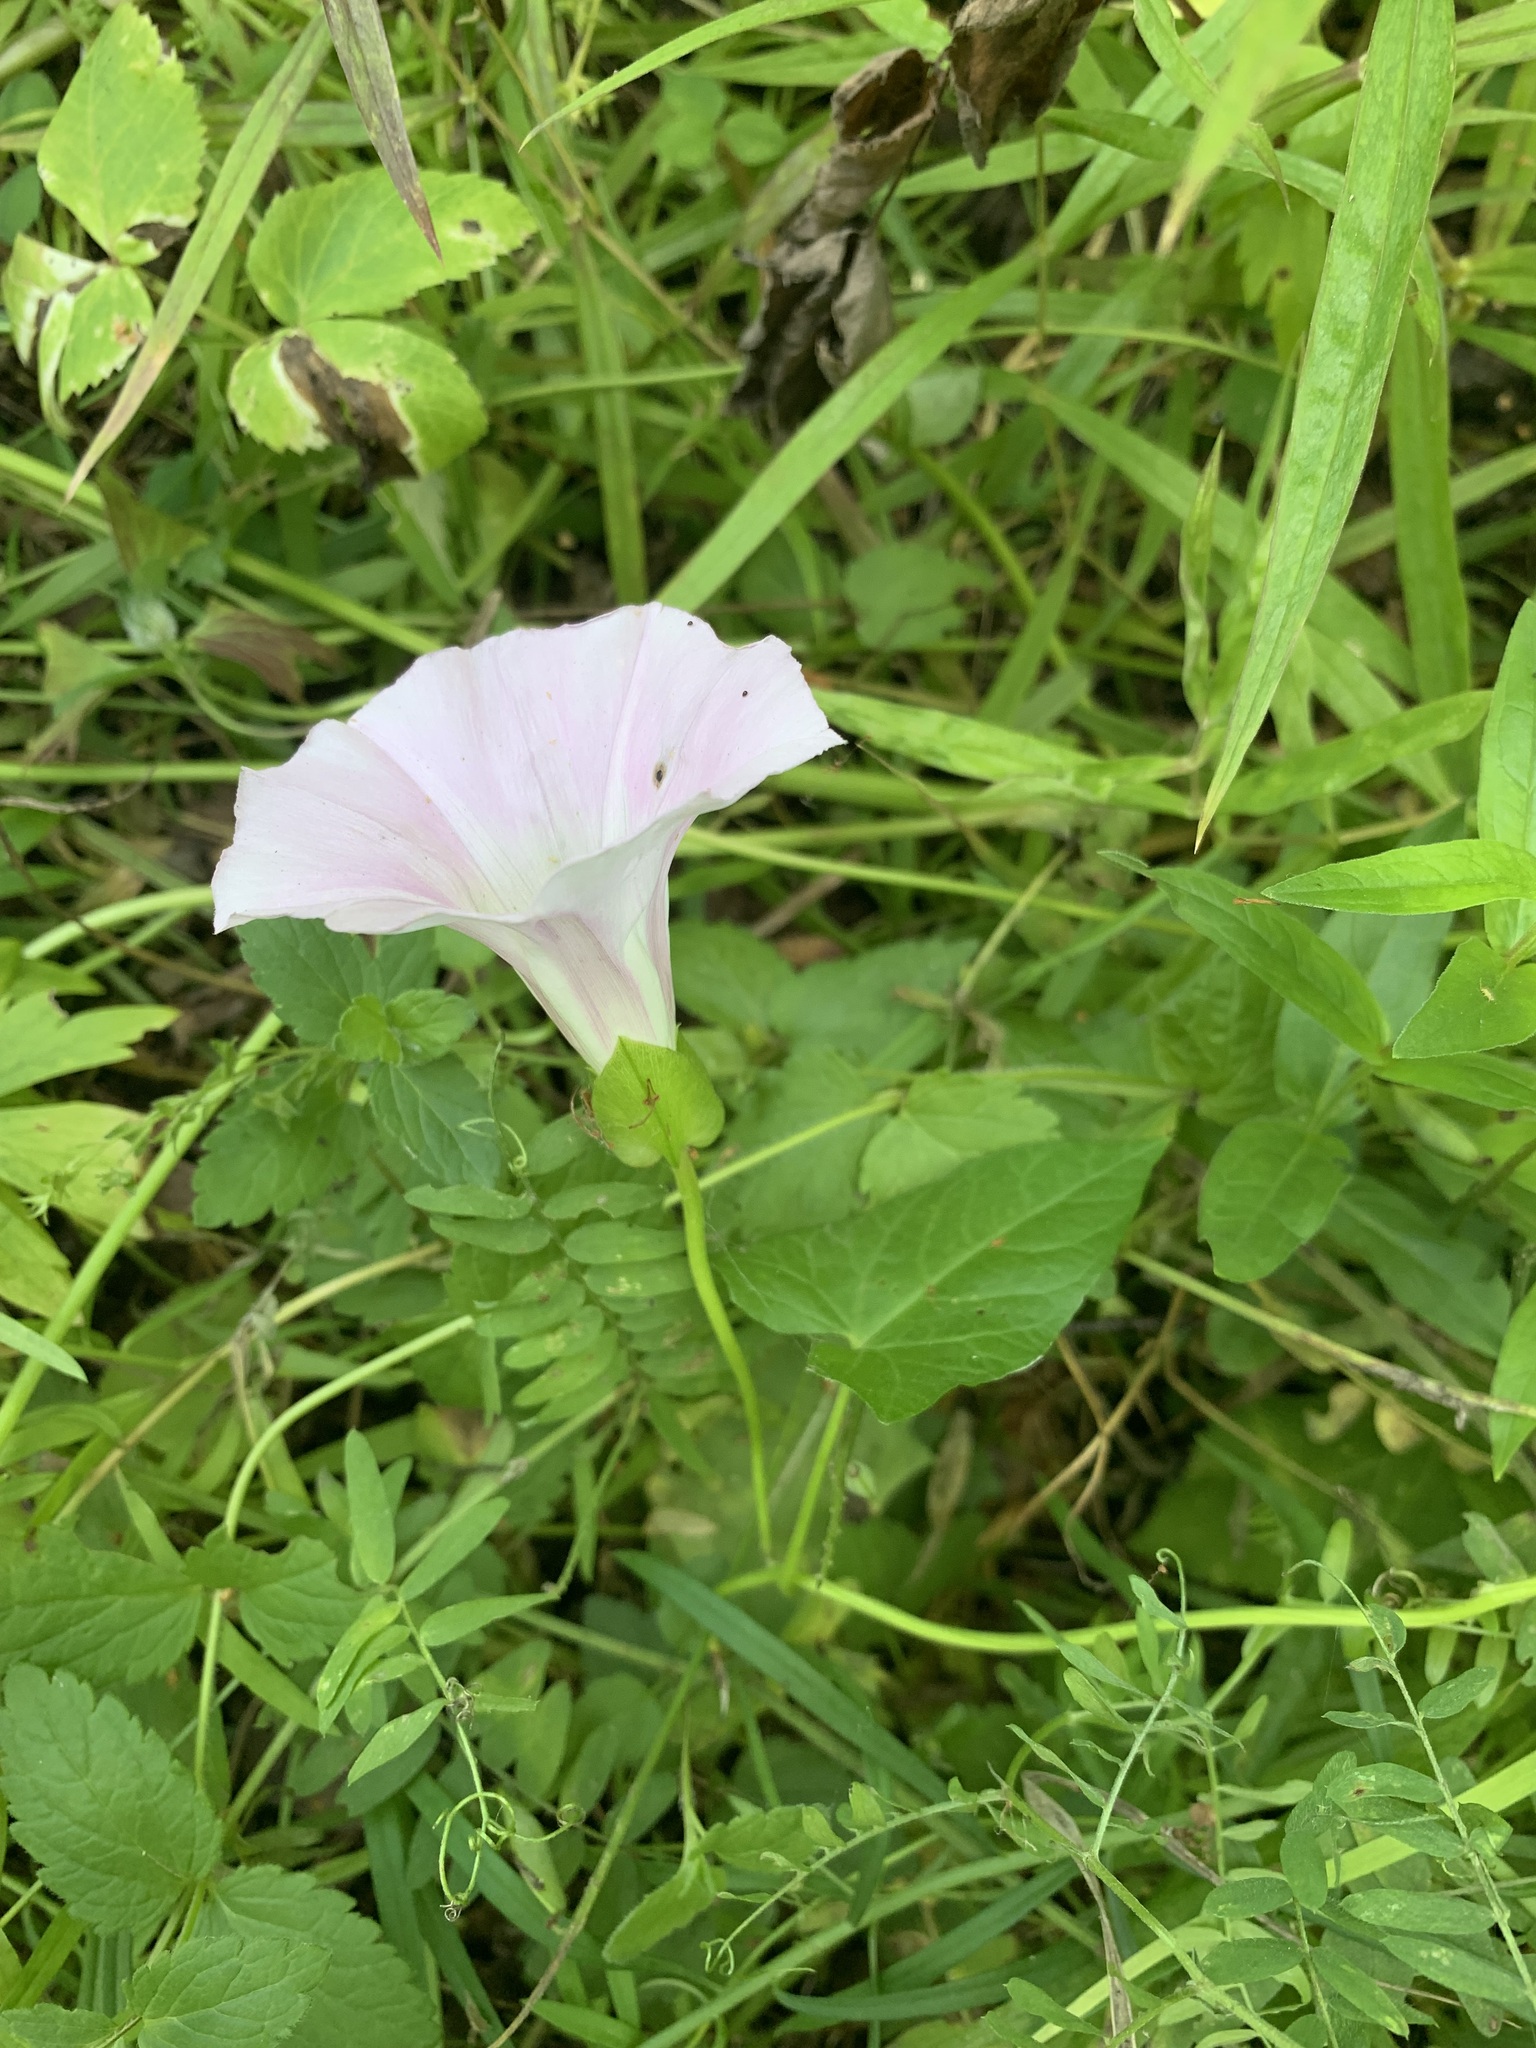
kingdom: Plantae
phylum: Tracheophyta
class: Magnoliopsida
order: Solanales
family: Convolvulaceae
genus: Calystegia
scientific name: Calystegia sepium
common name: Hedge bindweed
